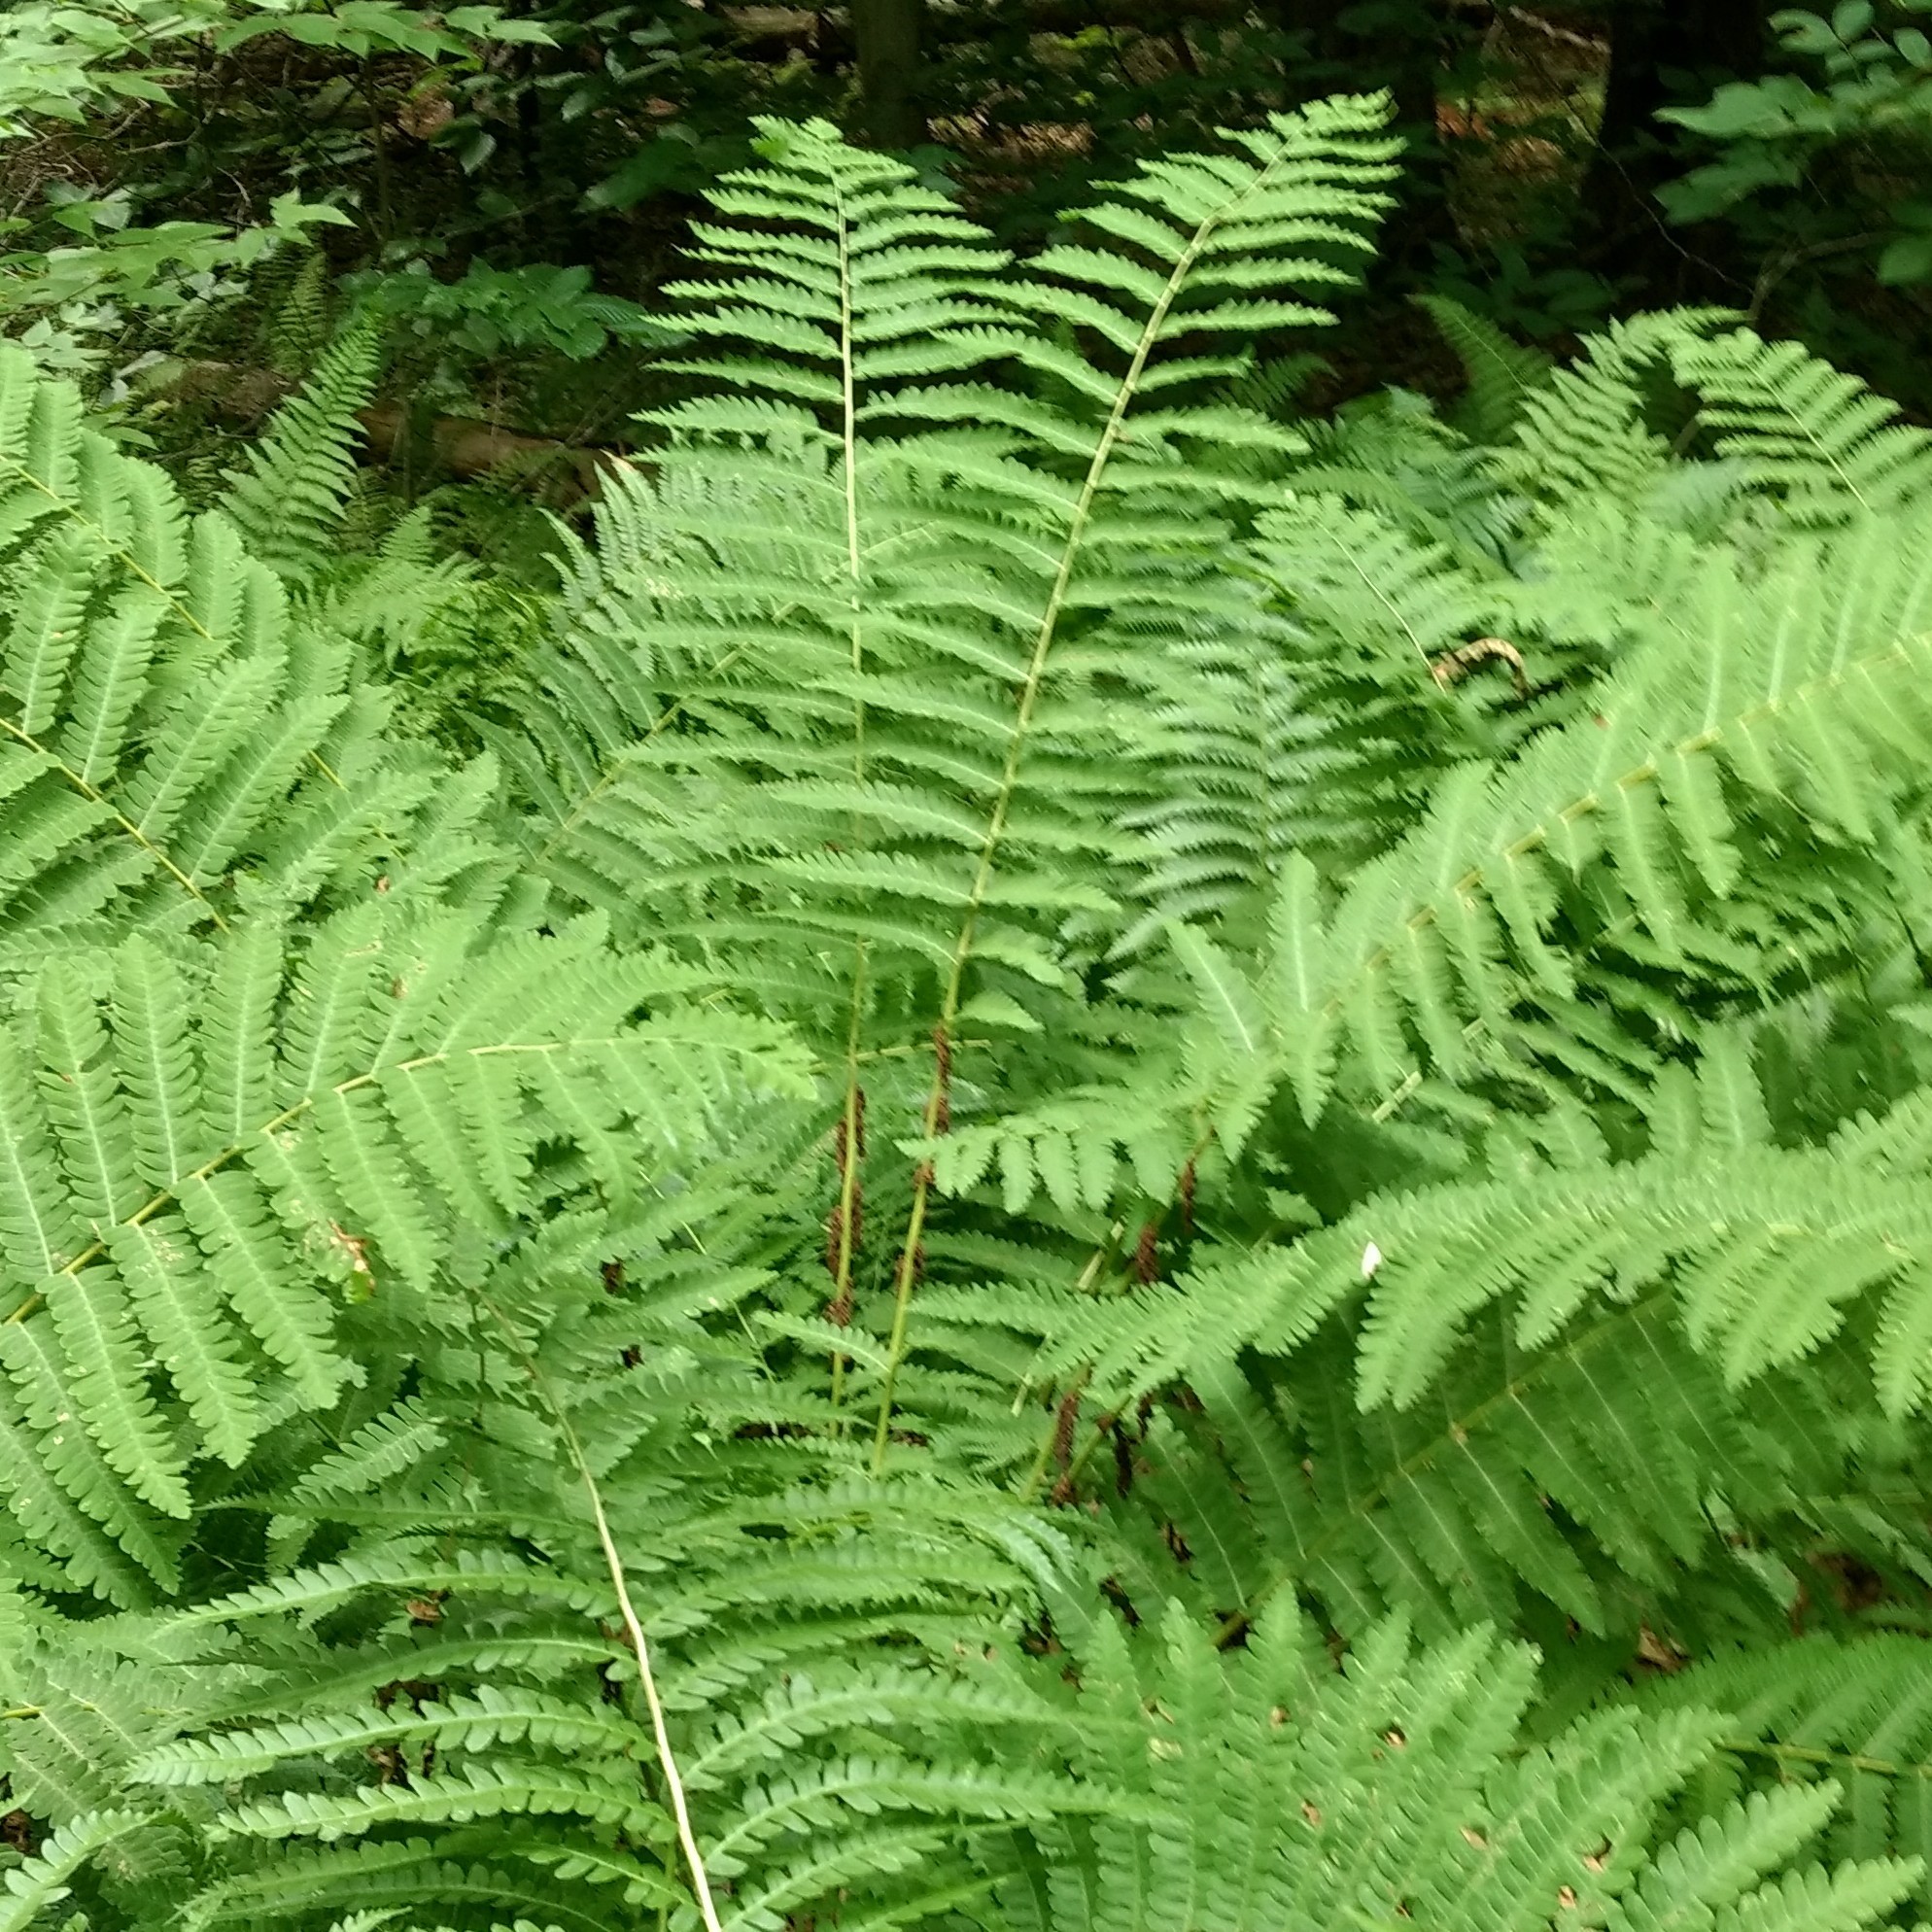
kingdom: Plantae
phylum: Tracheophyta
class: Polypodiopsida
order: Osmundales
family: Osmundaceae
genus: Claytosmunda
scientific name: Claytosmunda claytoniana
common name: Clayton's fern
